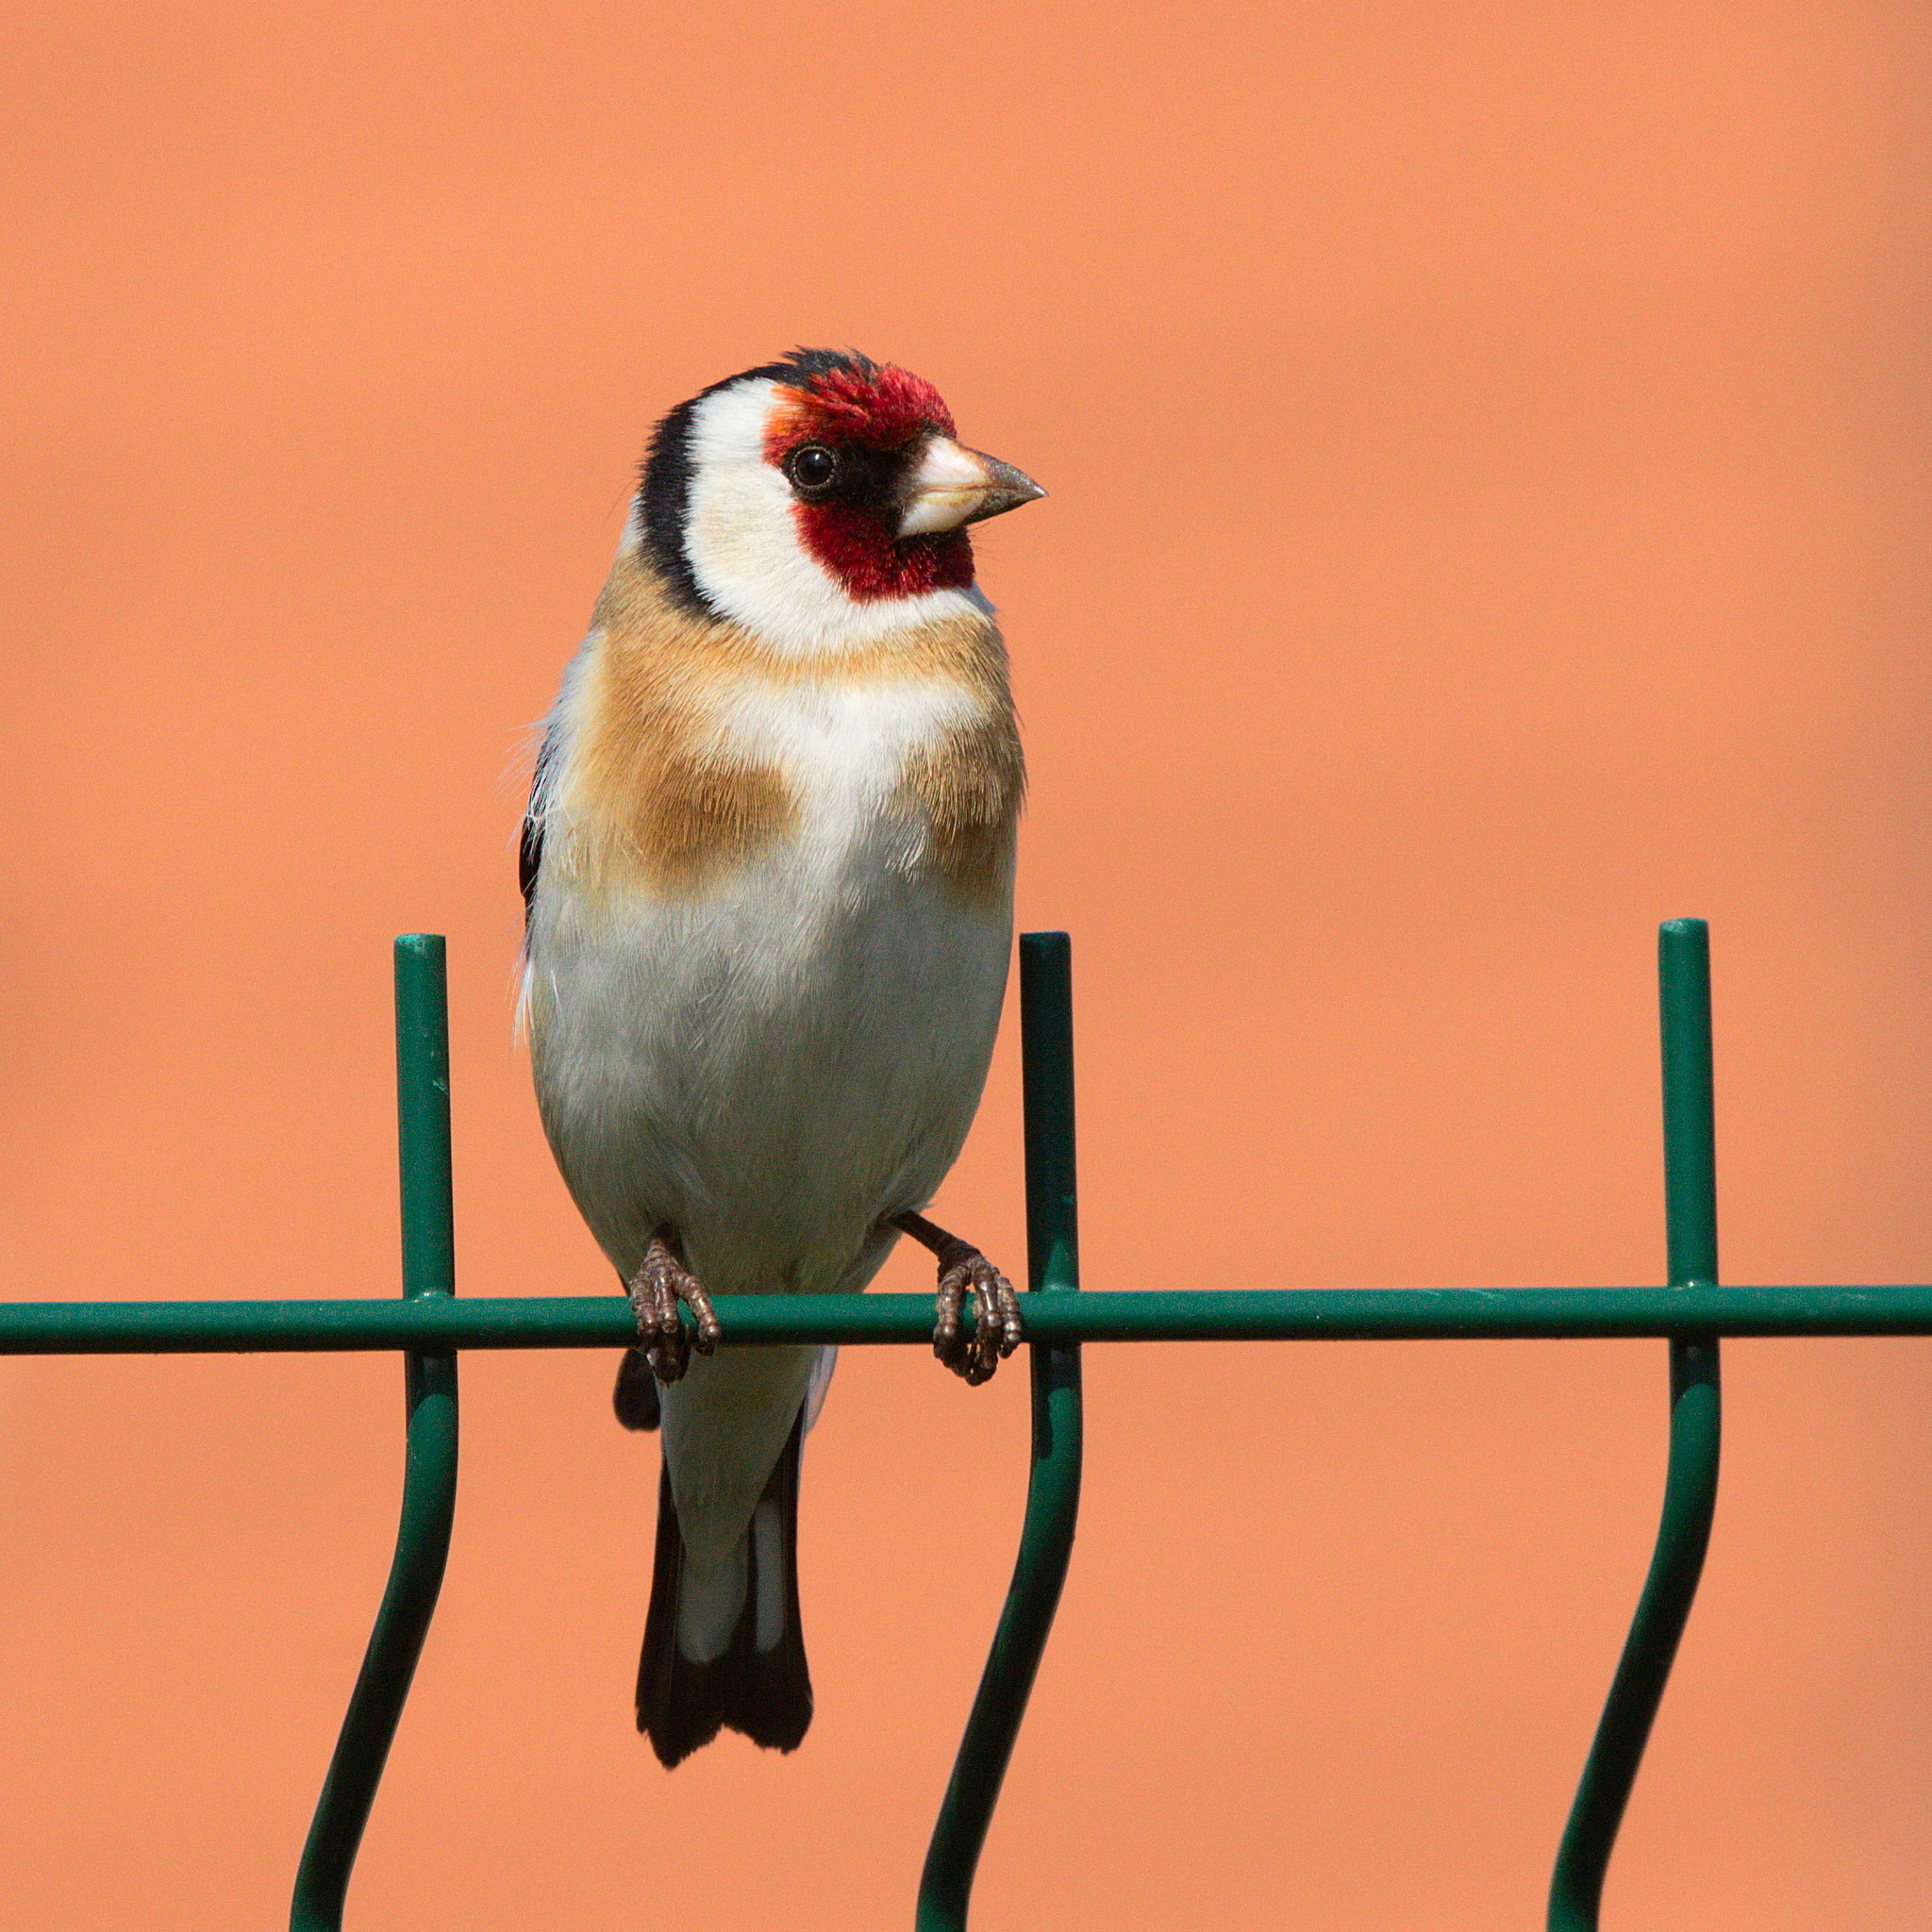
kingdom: Animalia
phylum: Chordata
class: Aves
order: Passeriformes
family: Fringillidae
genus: Carduelis
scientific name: Carduelis carduelis
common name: European goldfinch
